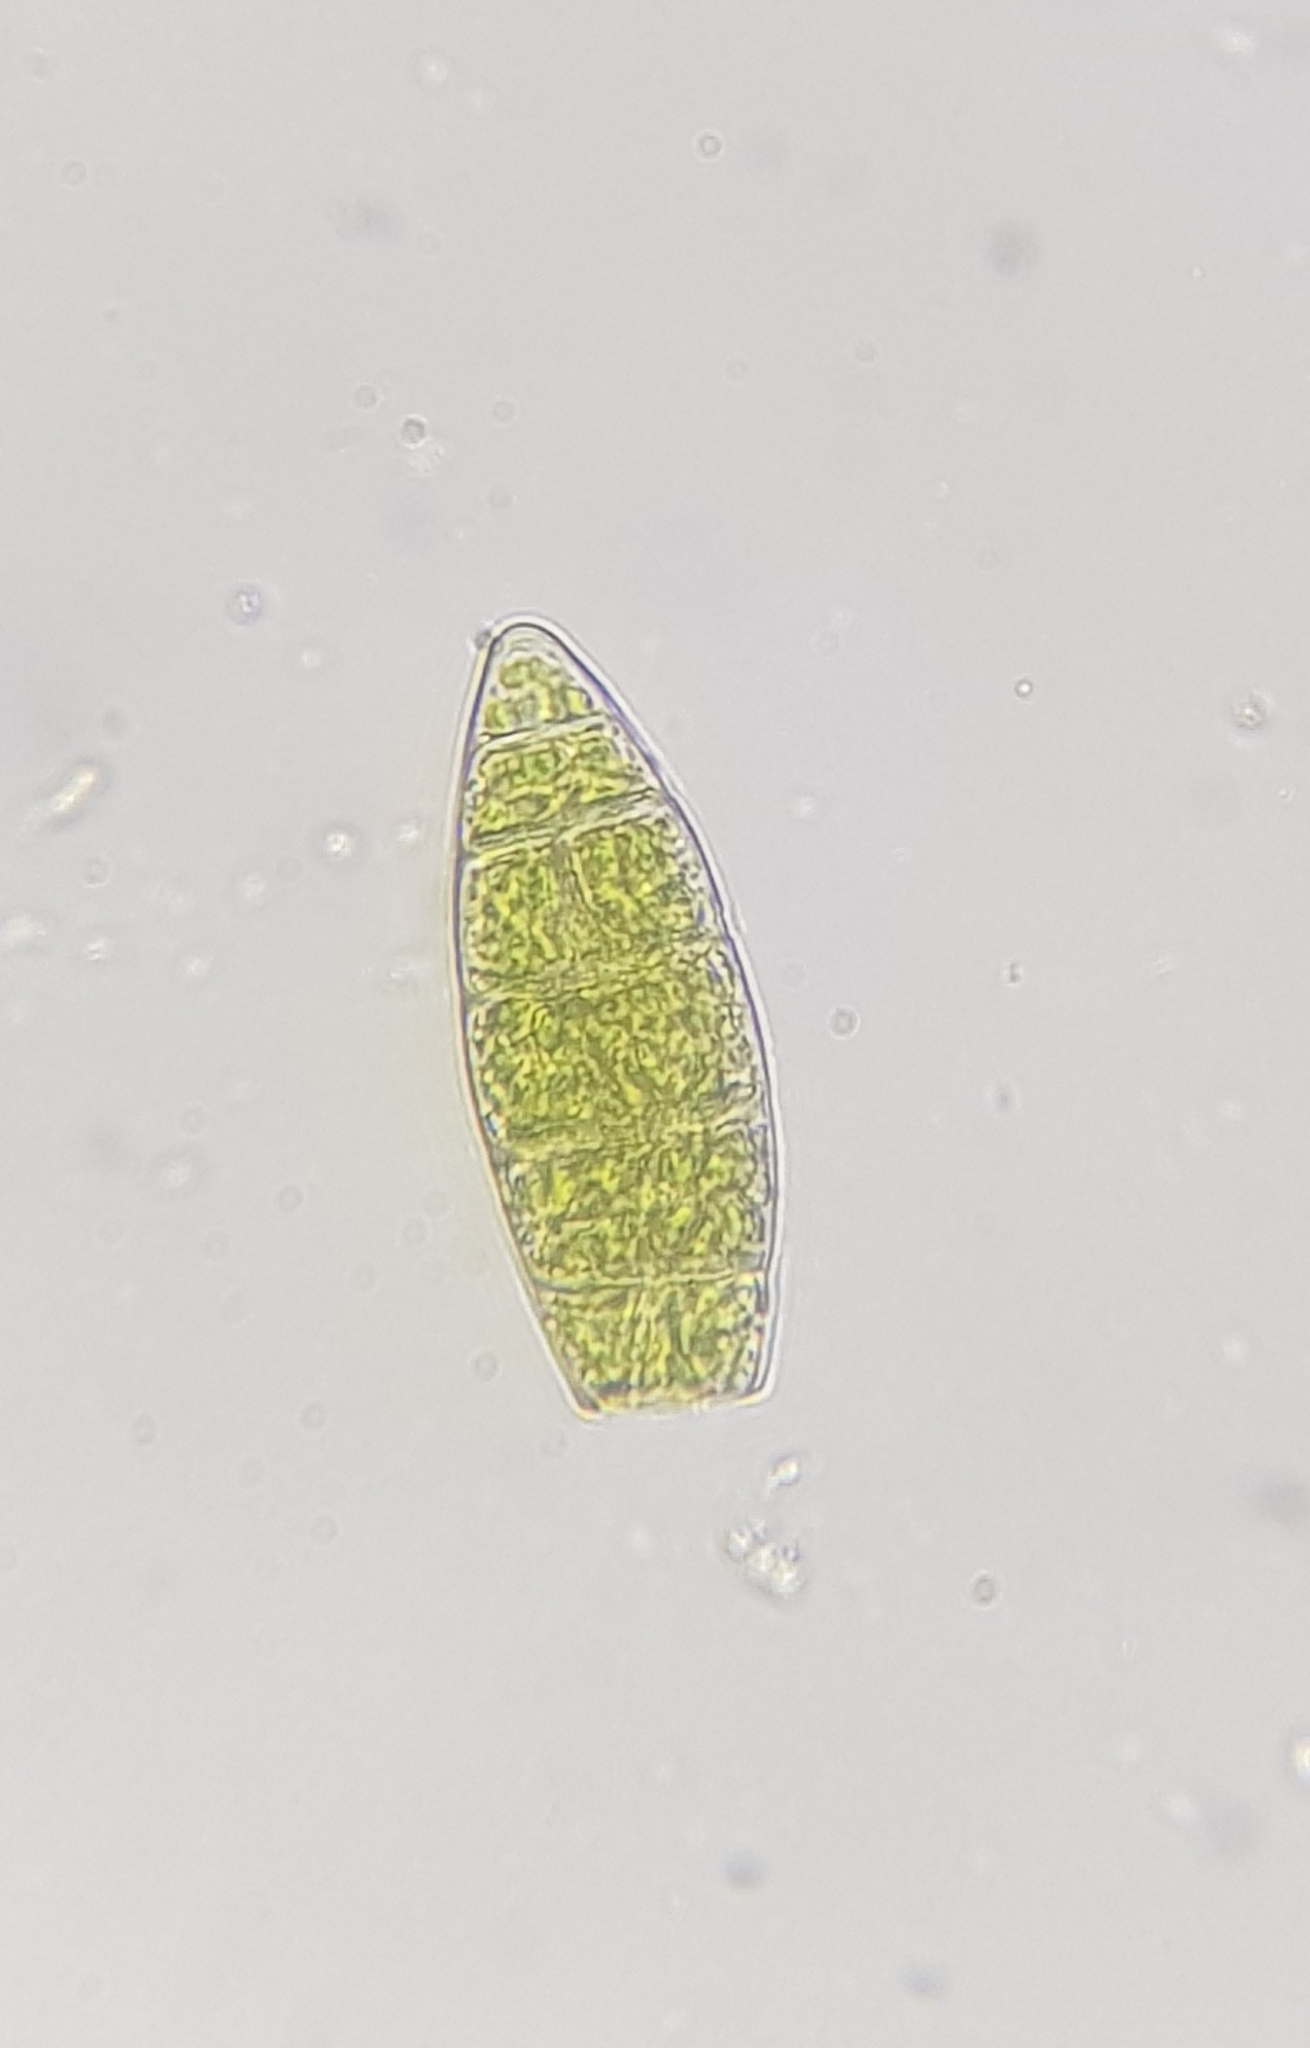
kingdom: Plantae
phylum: Bryophyta
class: Bryopsida
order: Orthotrichales
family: Orthotrichaceae
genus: Zygodon
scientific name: Zygodon viridissimus
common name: Green yoke moss
